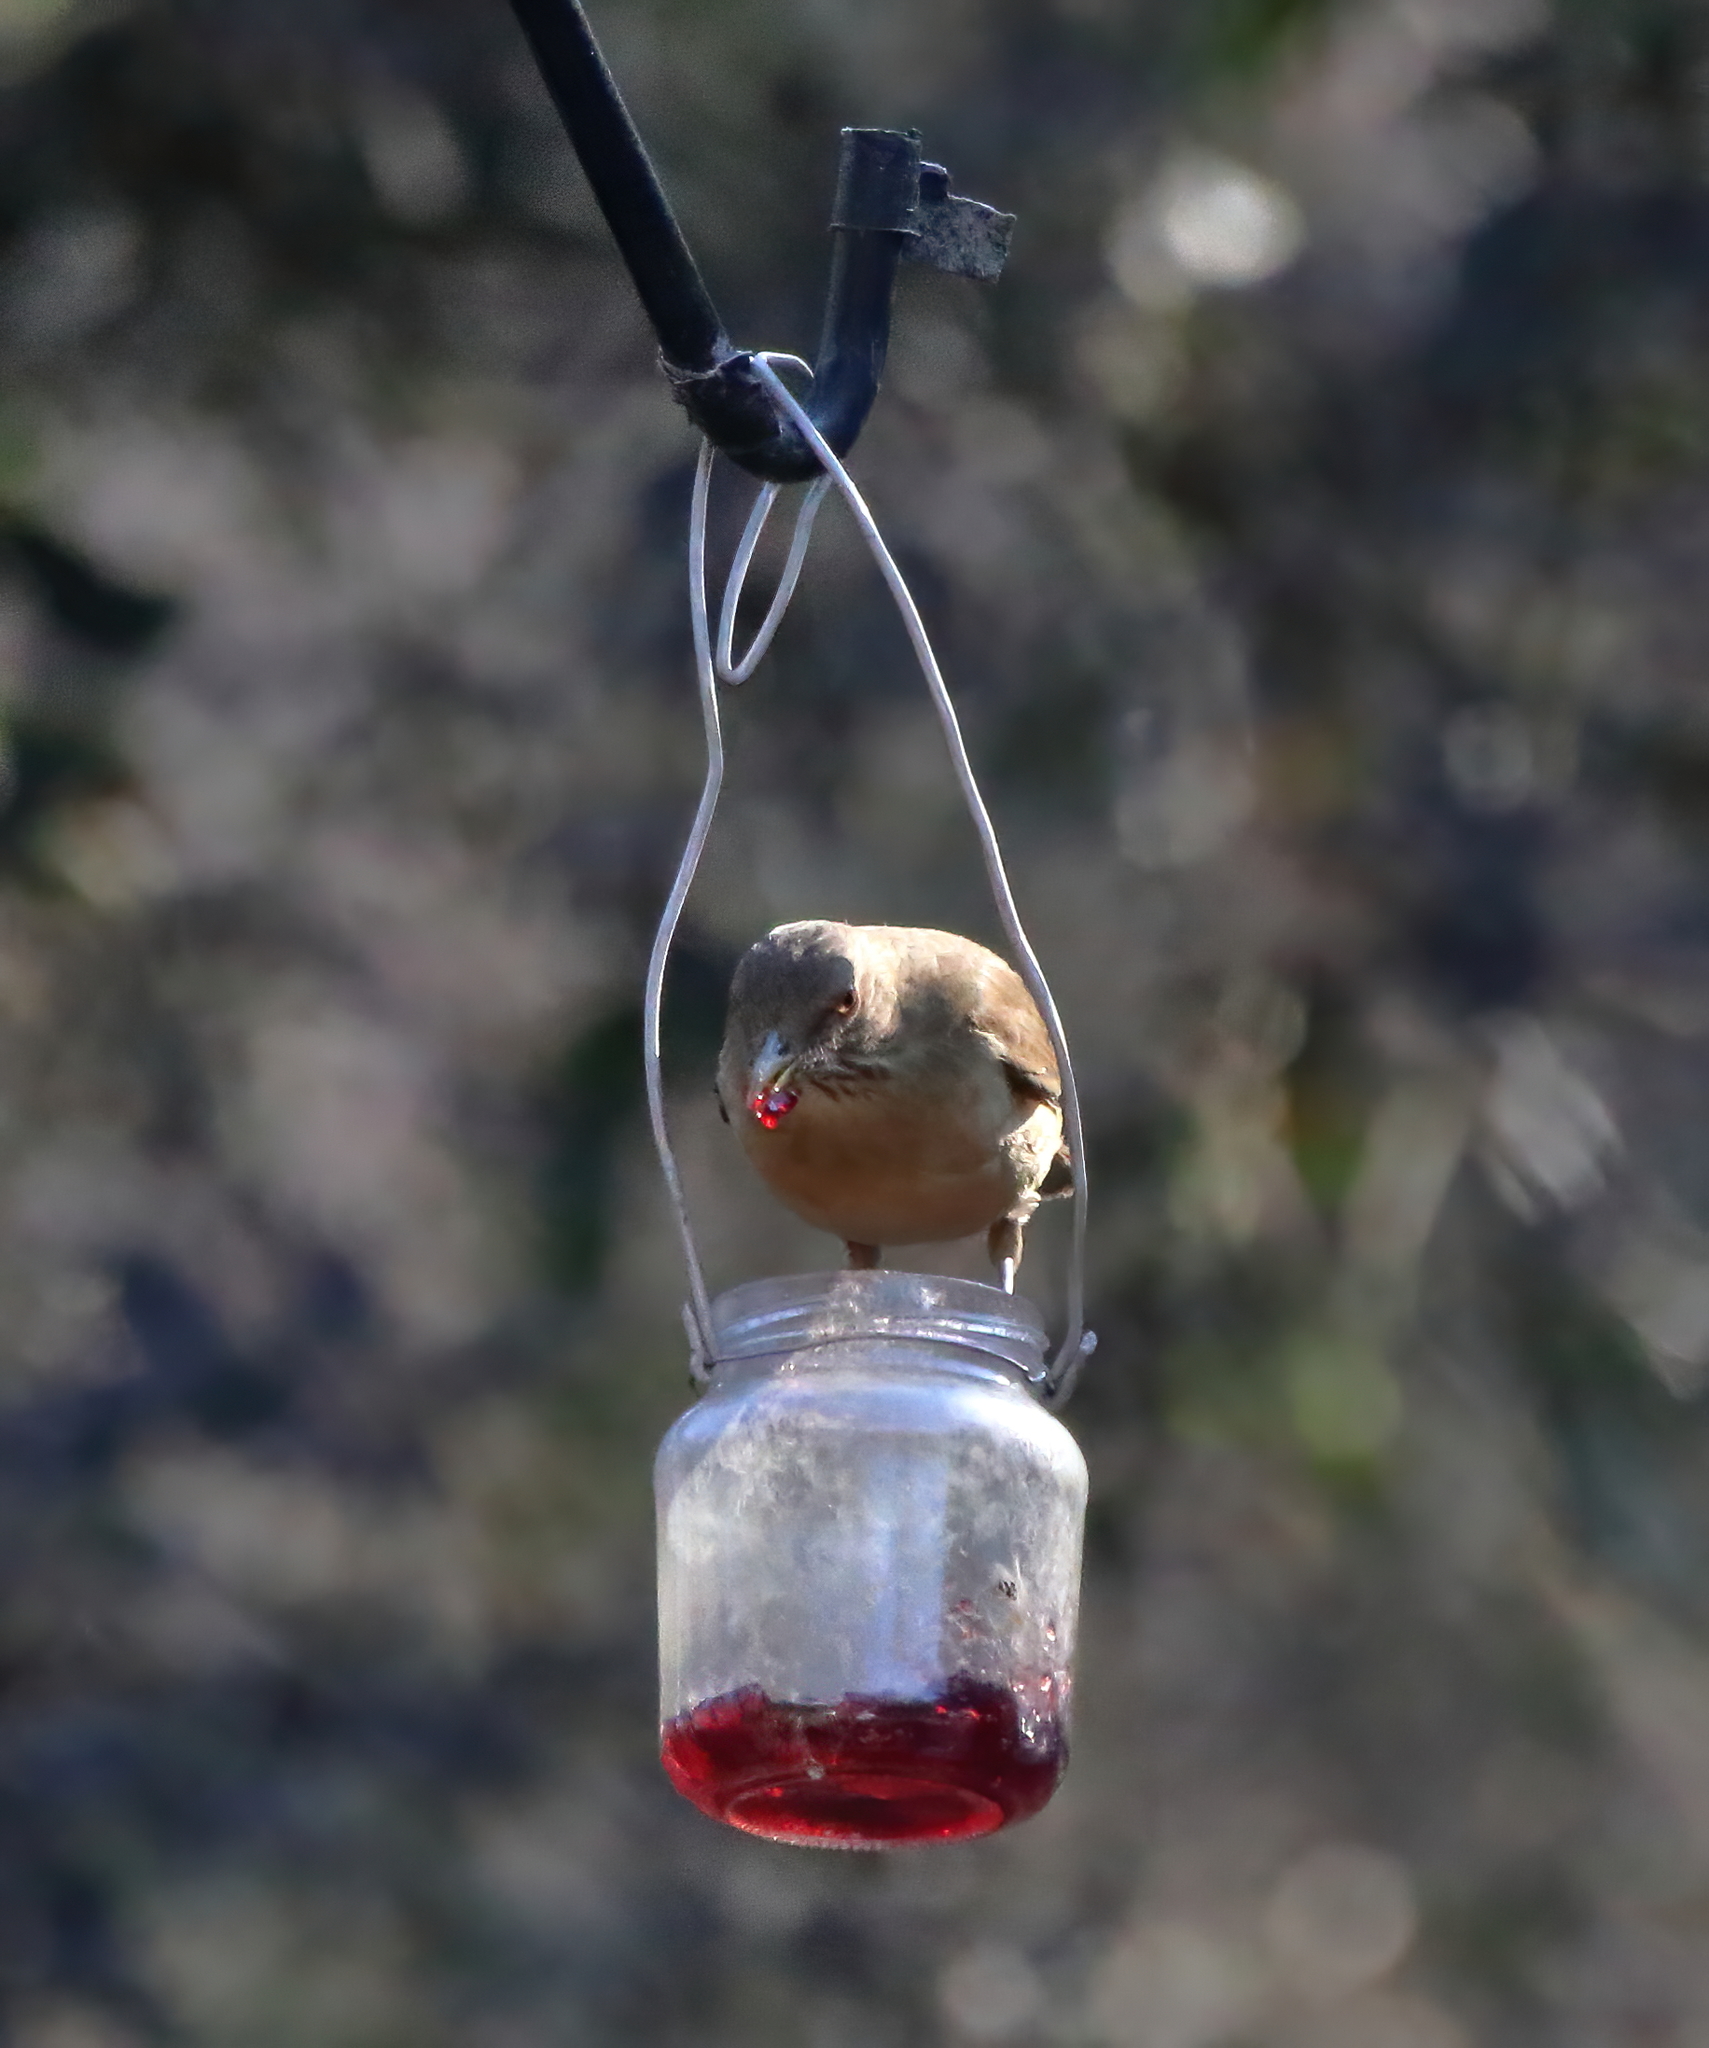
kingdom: Animalia
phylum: Chordata
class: Aves
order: Passeriformes
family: Turdidae
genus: Turdus
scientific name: Turdus grayi
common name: Clay-colored thrush
